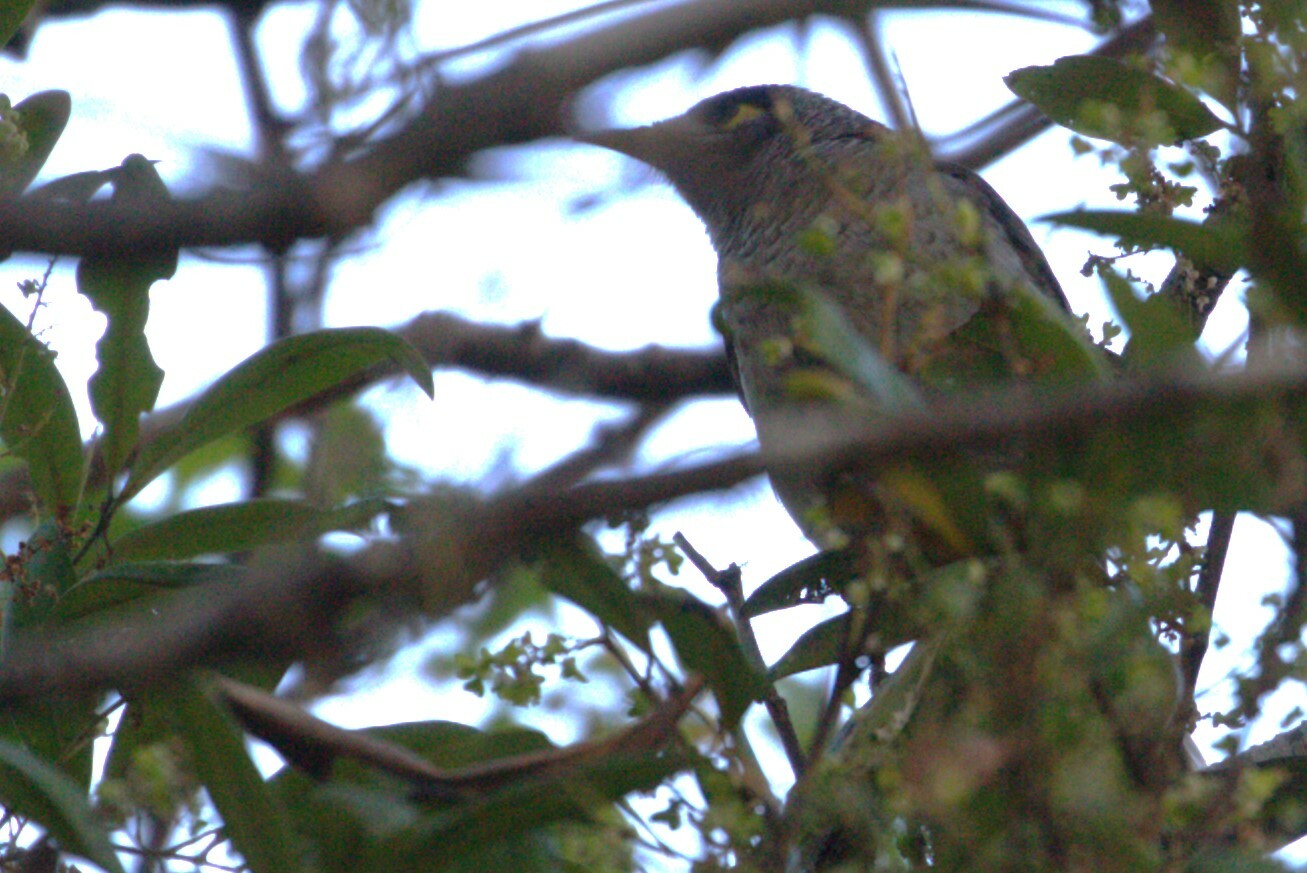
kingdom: Animalia
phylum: Chordata
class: Aves
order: Passeriformes
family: Meliphagidae
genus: Manorina
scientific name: Manorina melanocephala
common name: Noisy miner
